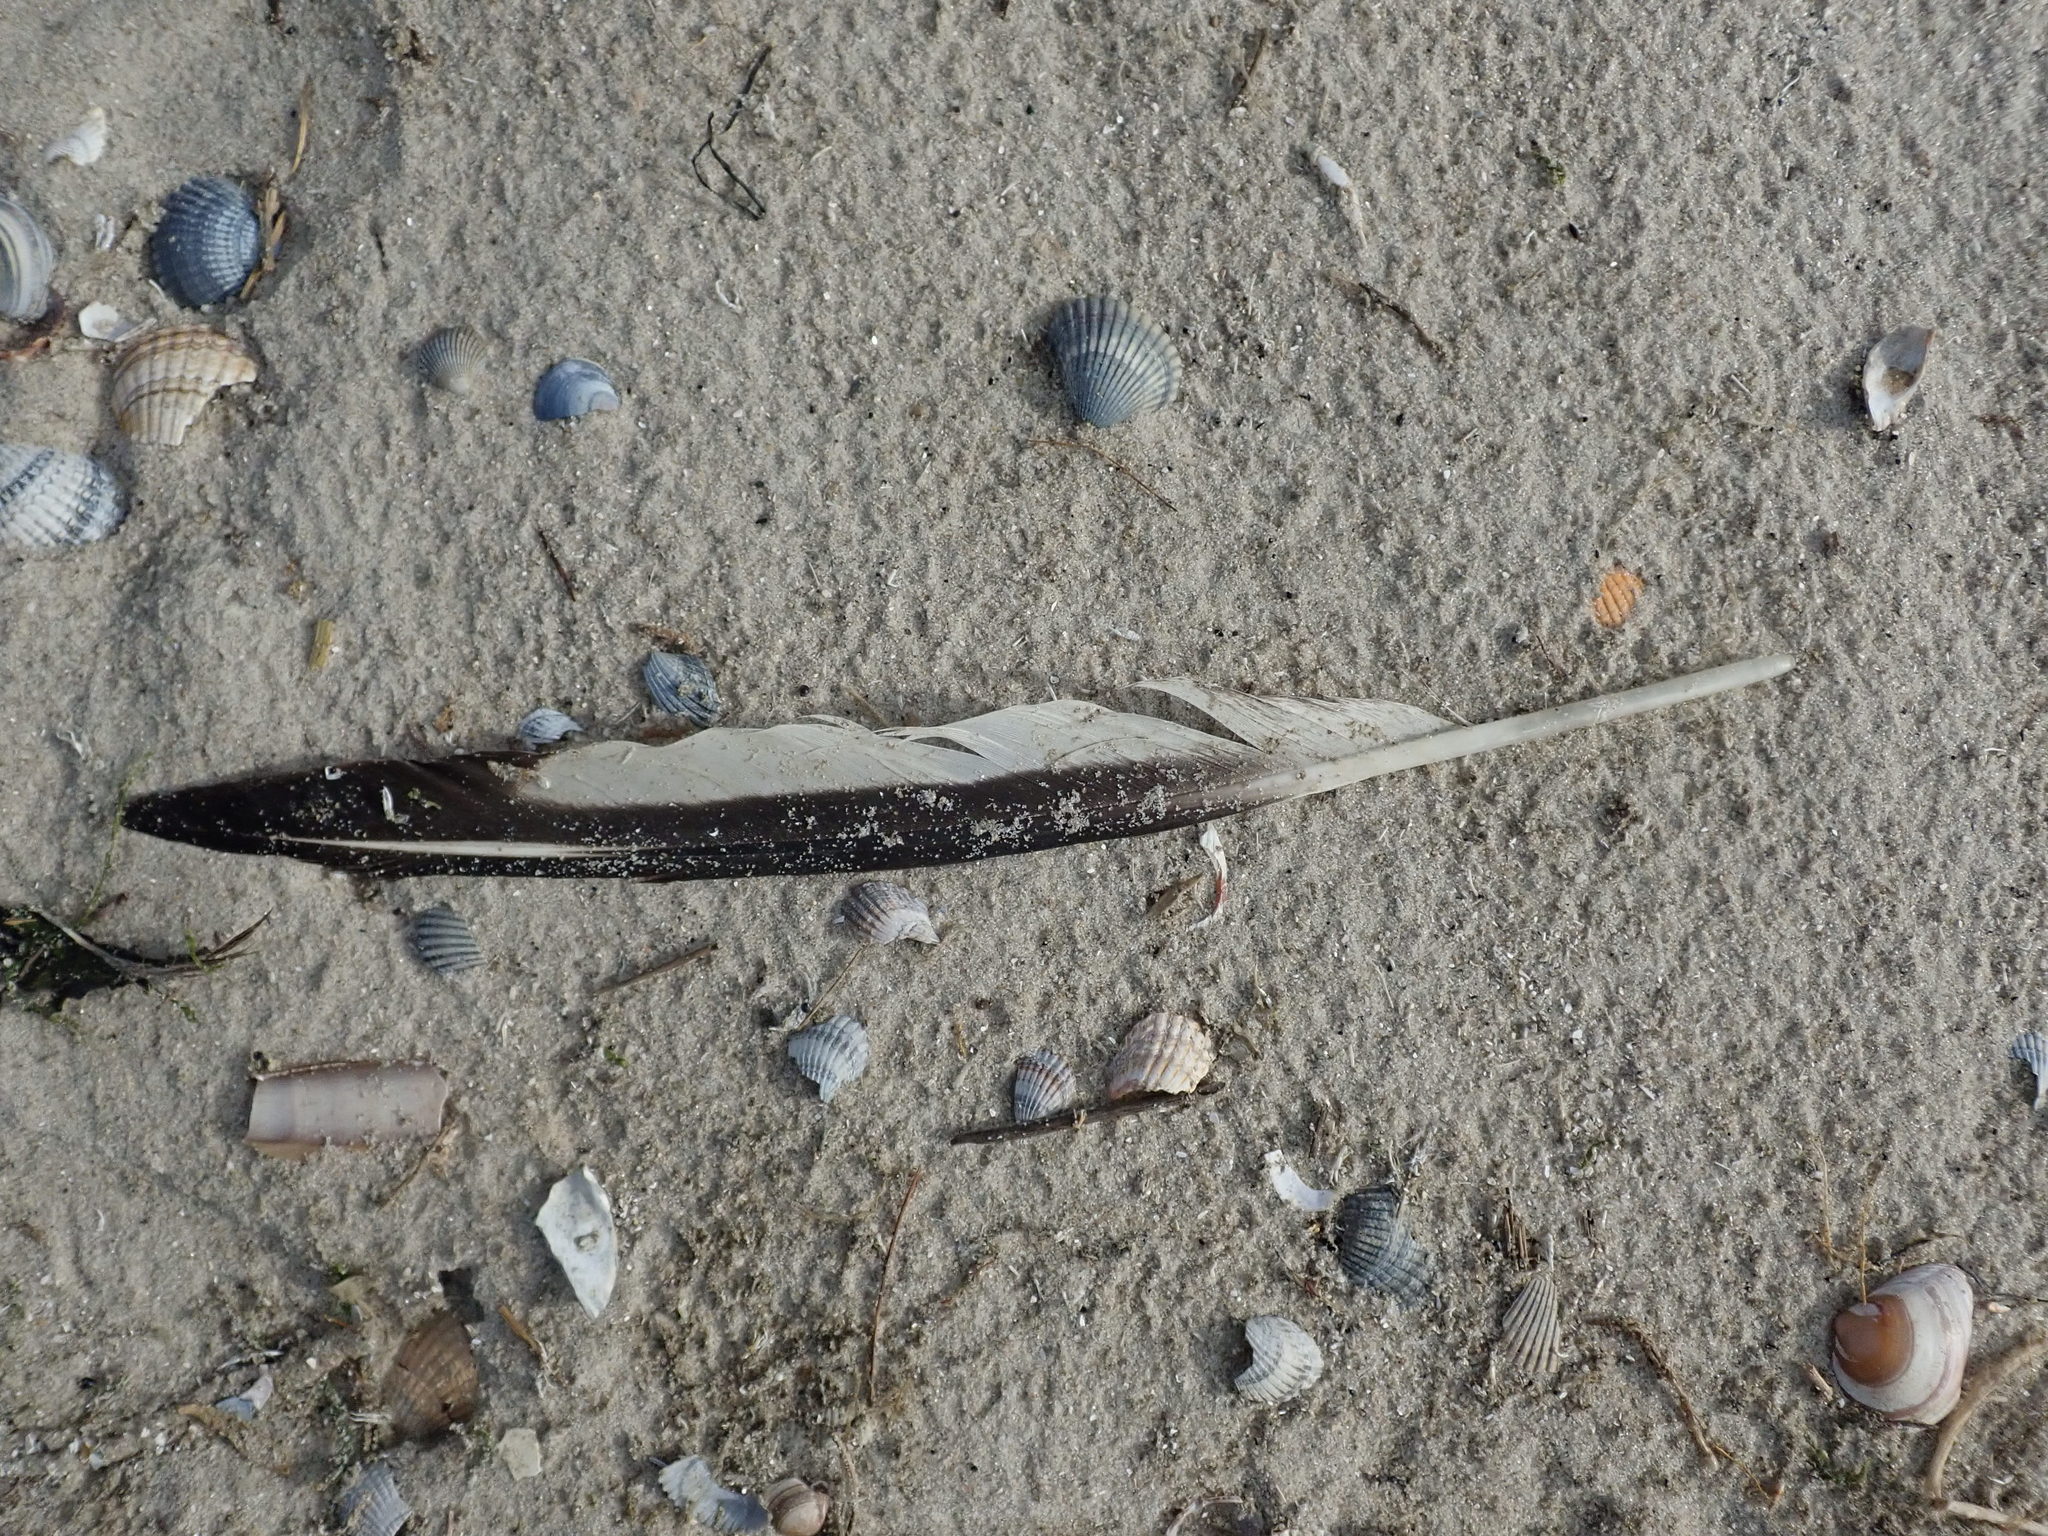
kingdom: Animalia
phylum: Chordata
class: Aves
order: Charadriiformes
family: Haematopodidae
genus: Haematopus
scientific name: Haematopus ostralegus
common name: Eurasian oystercatcher
